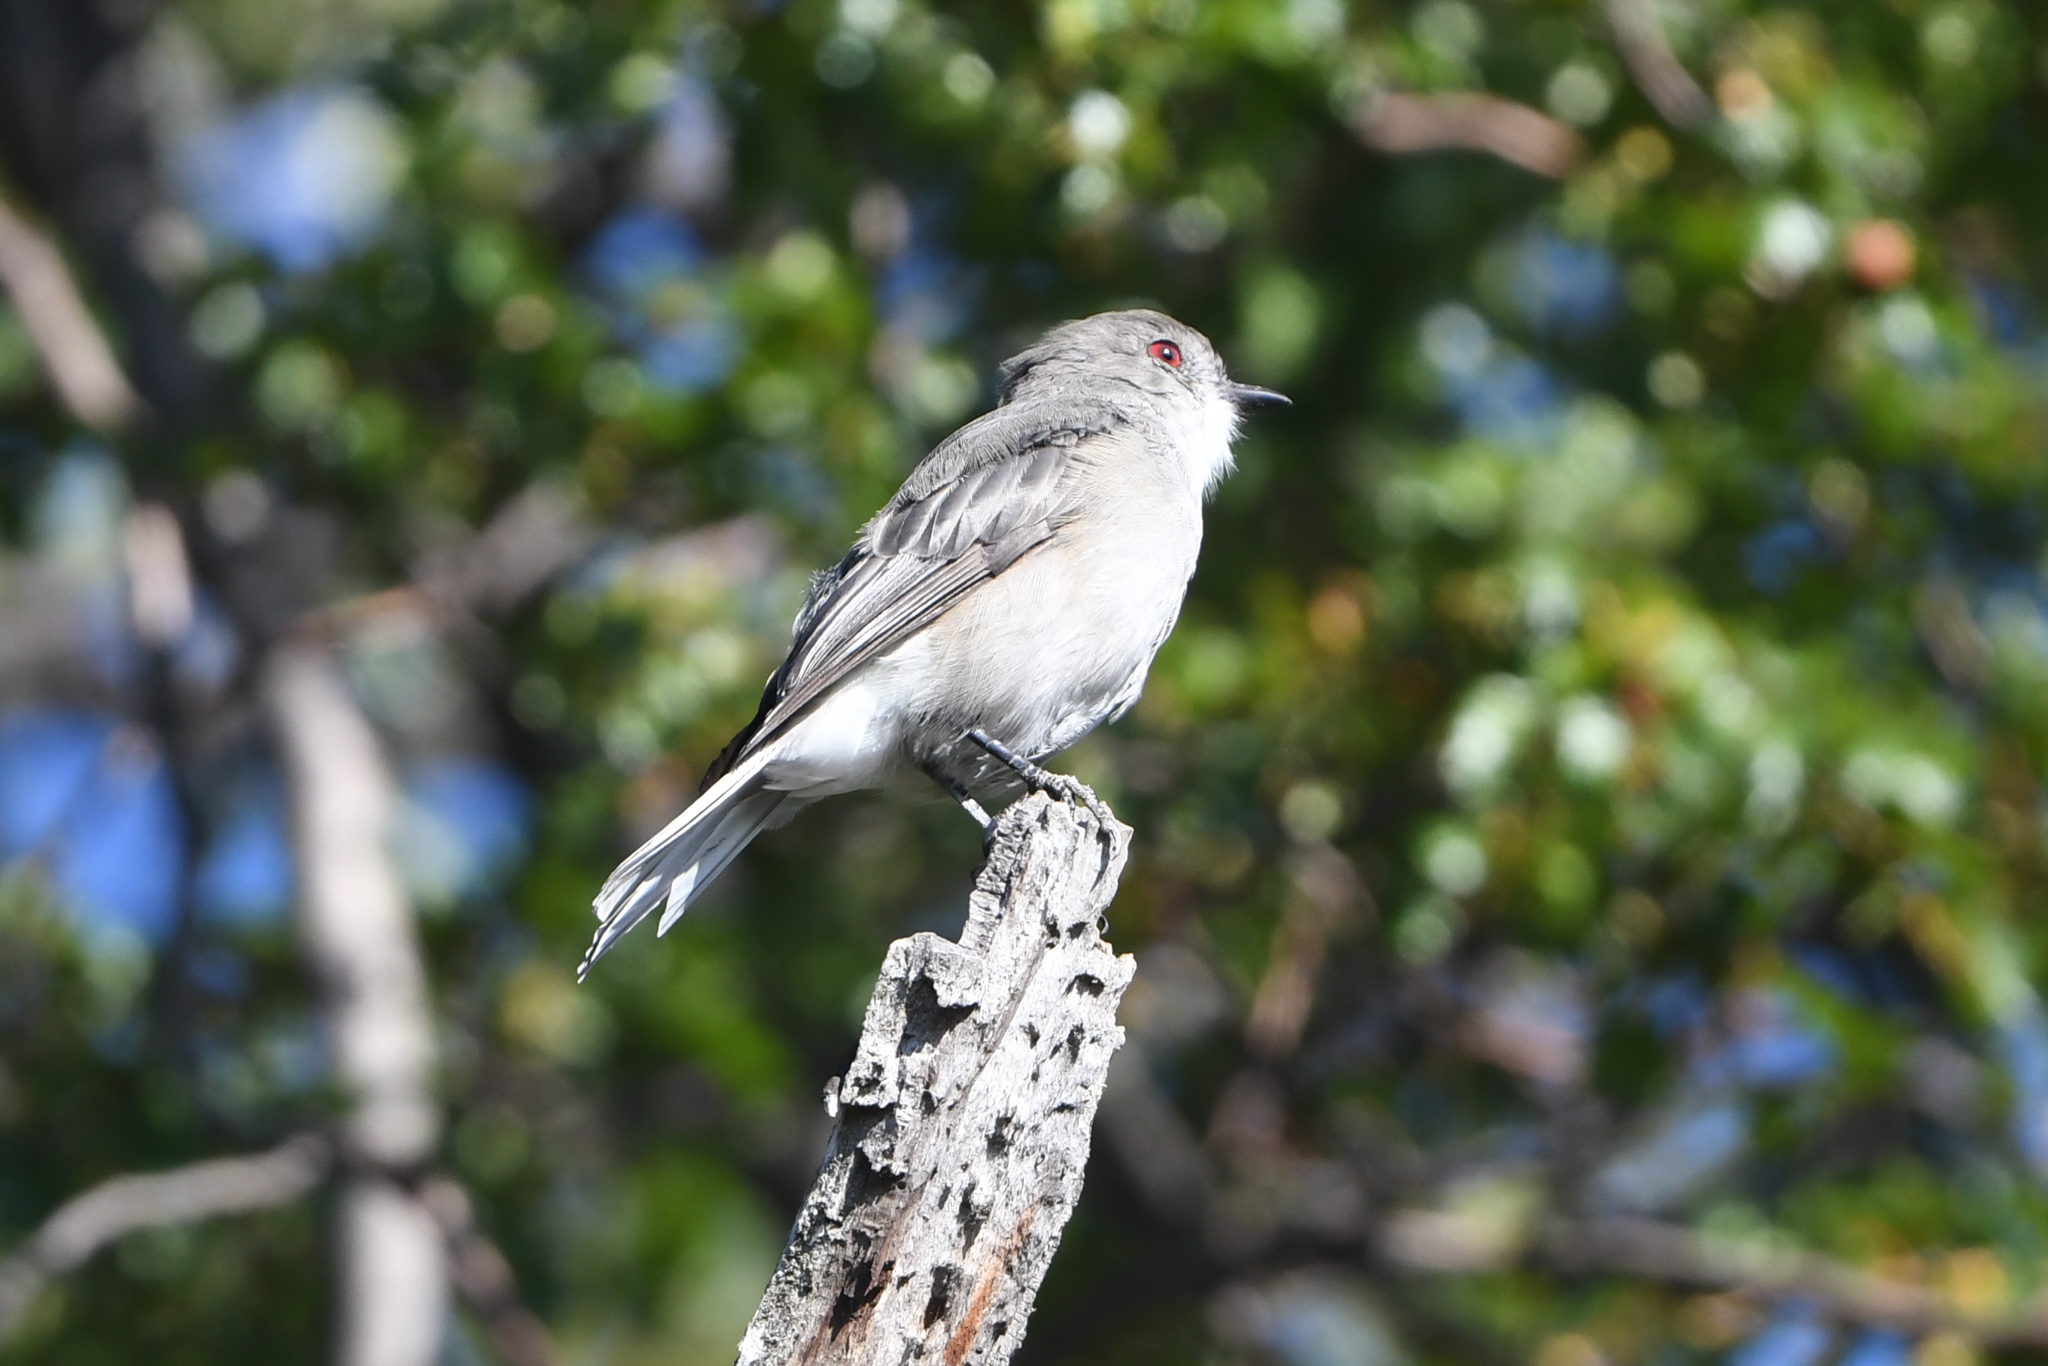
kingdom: Animalia
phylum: Chordata
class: Aves
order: Passeriformes
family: Tyrannidae
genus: Xolmis
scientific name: Xolmis pyrope
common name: Fire-eyed diucon
